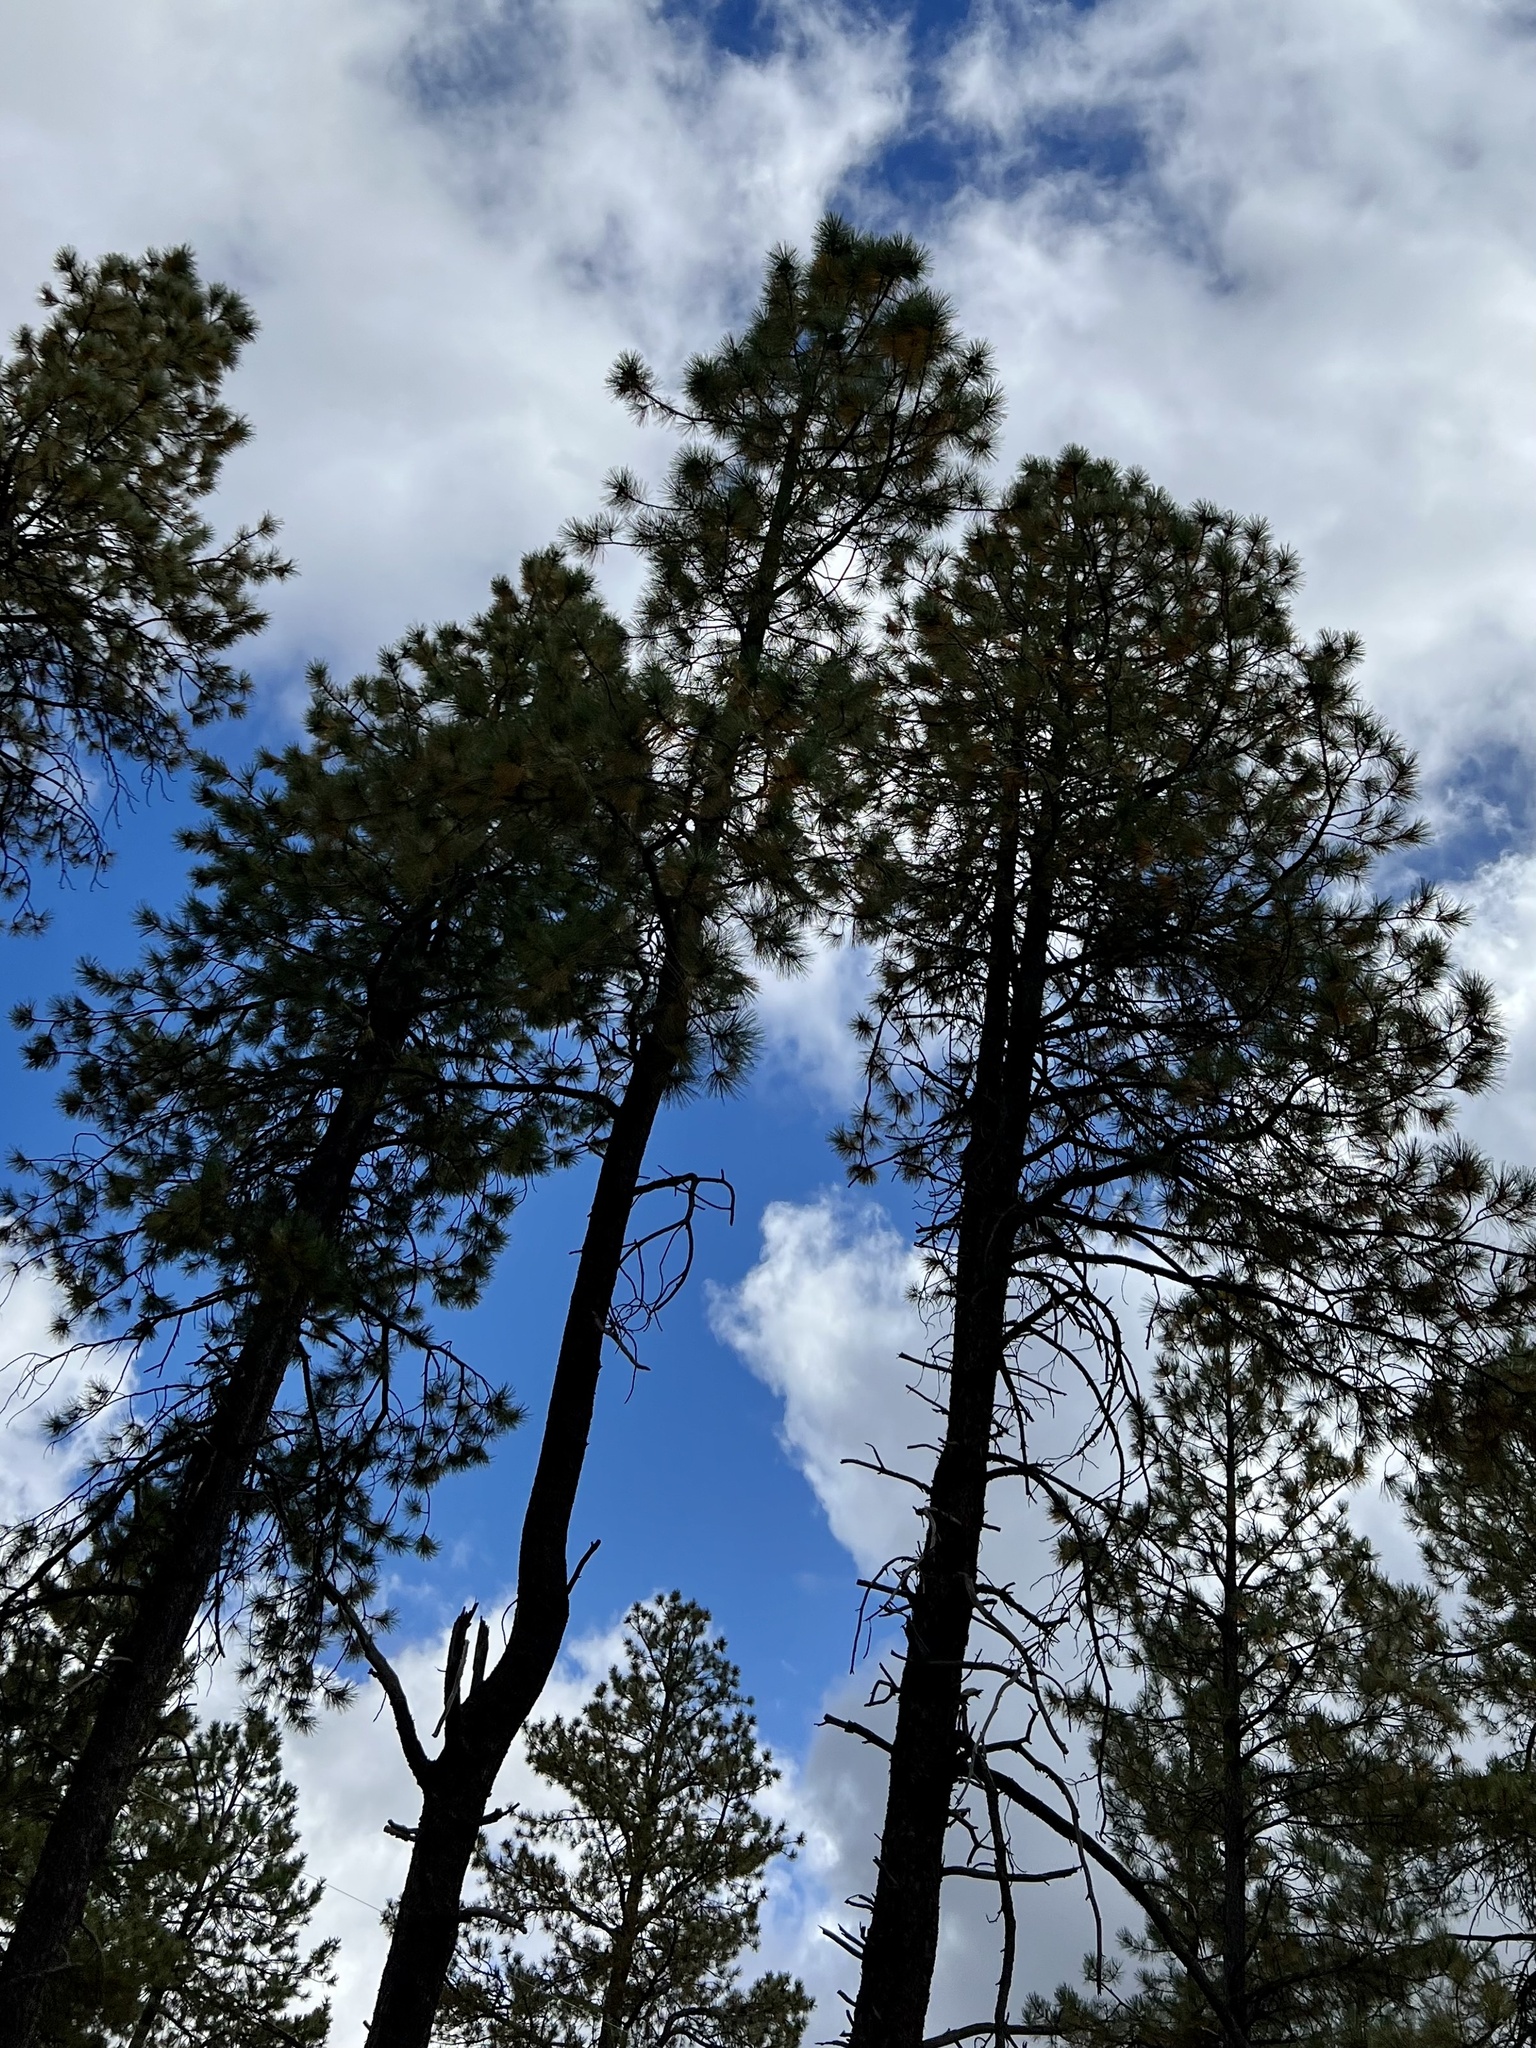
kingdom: Plantae
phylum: Tracheophyta
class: Pinopsida
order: Pinales
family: Pinaceae
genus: Pinus
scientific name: Pinus ponderosa
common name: Western yellow-pine
